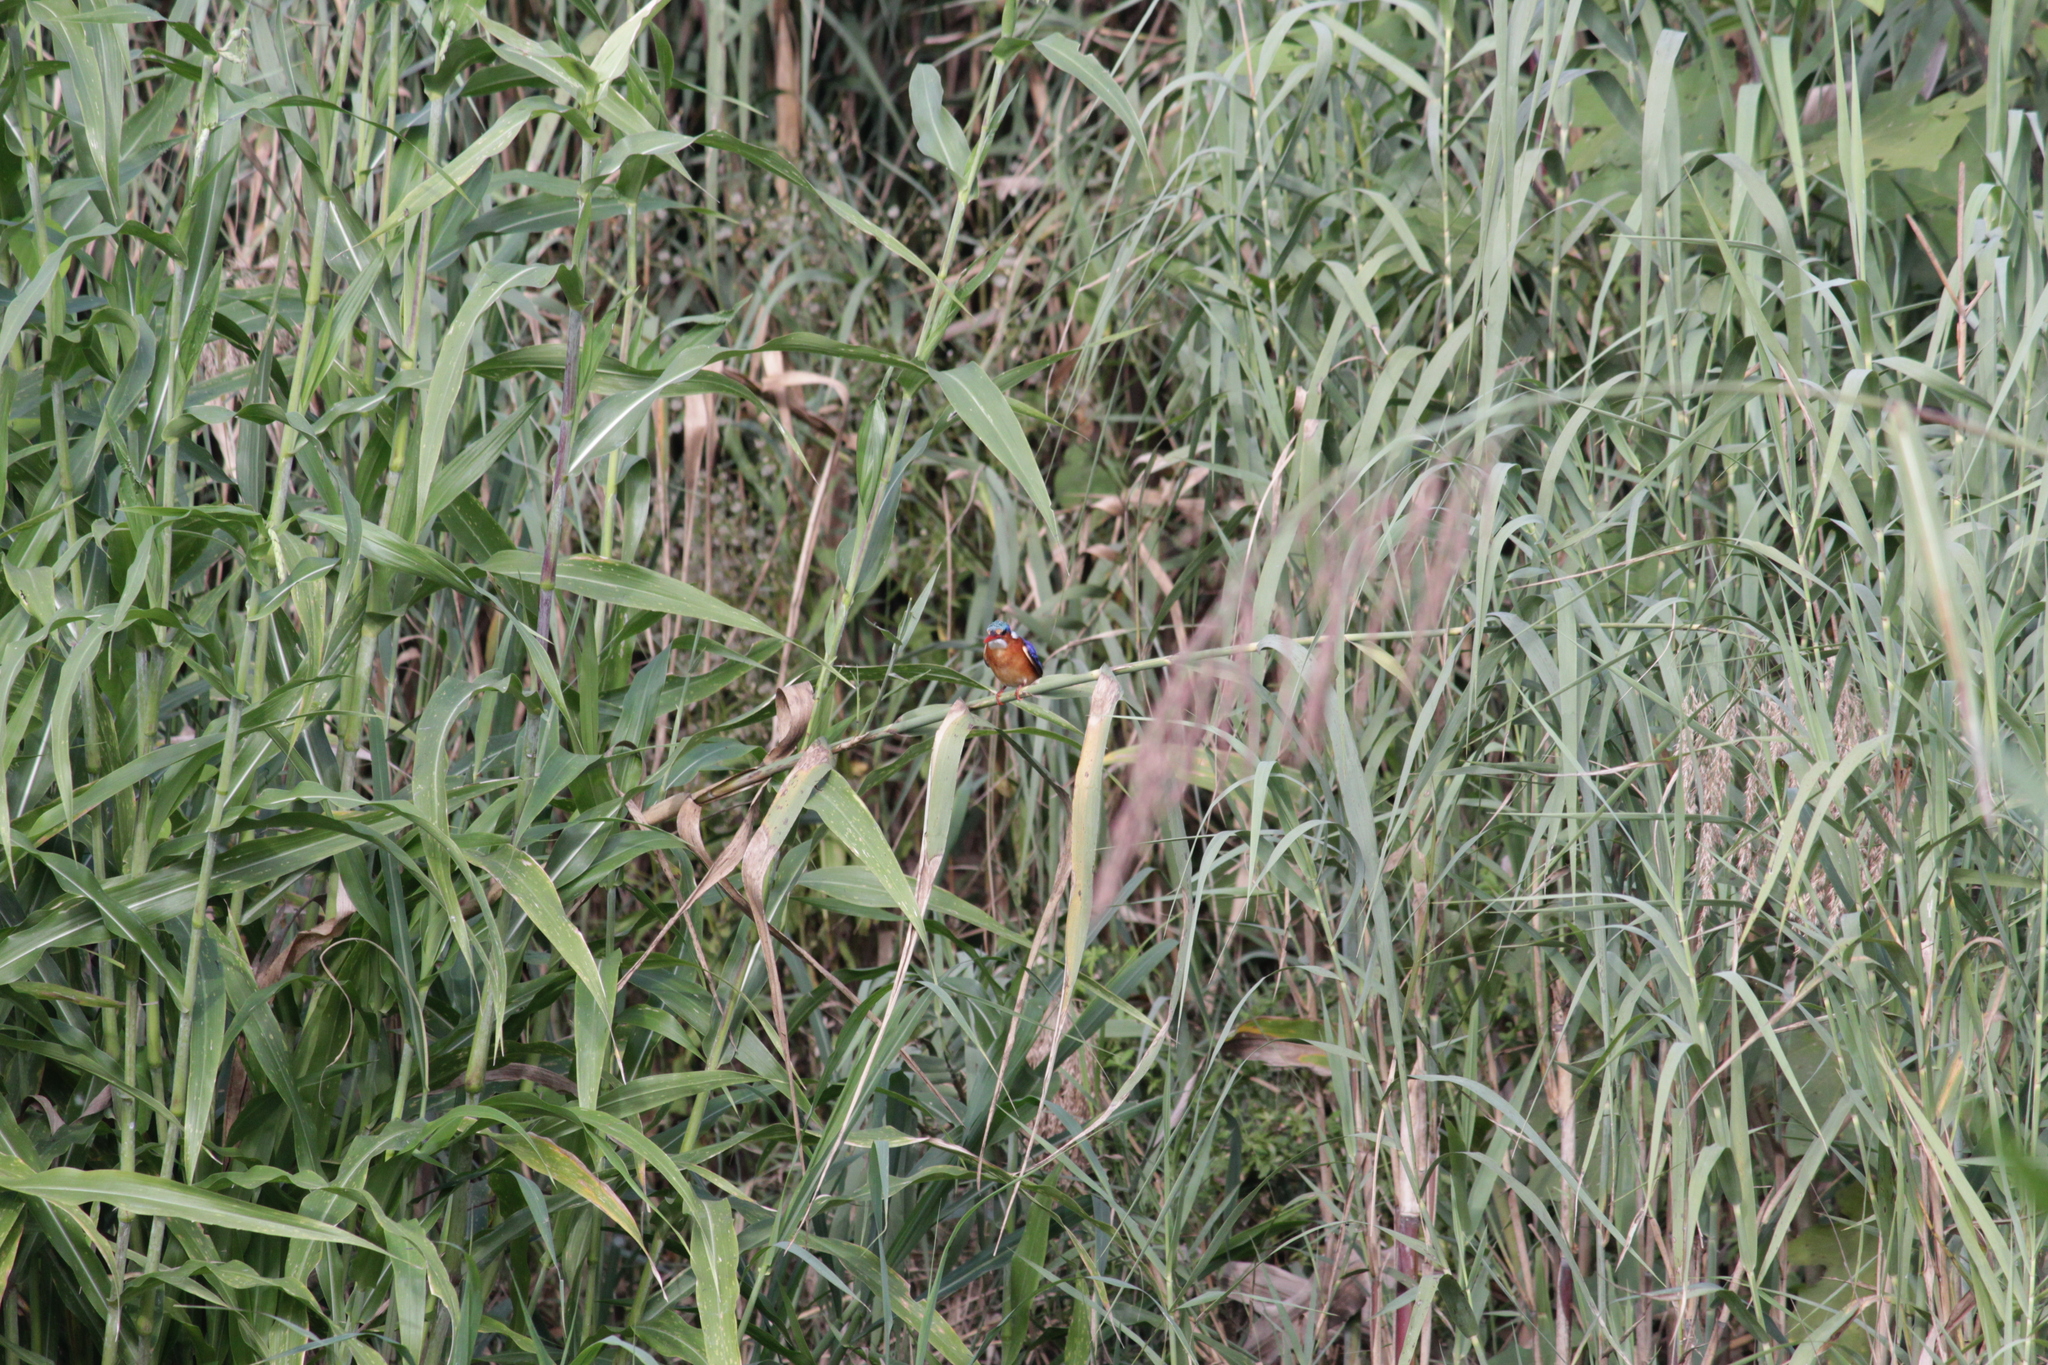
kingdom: Animalia
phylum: Chordata
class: Aves
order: Coraciiformes
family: Alcedinidae
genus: Corythornis
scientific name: Corythornis cristatus
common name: Malachite kingfisher
